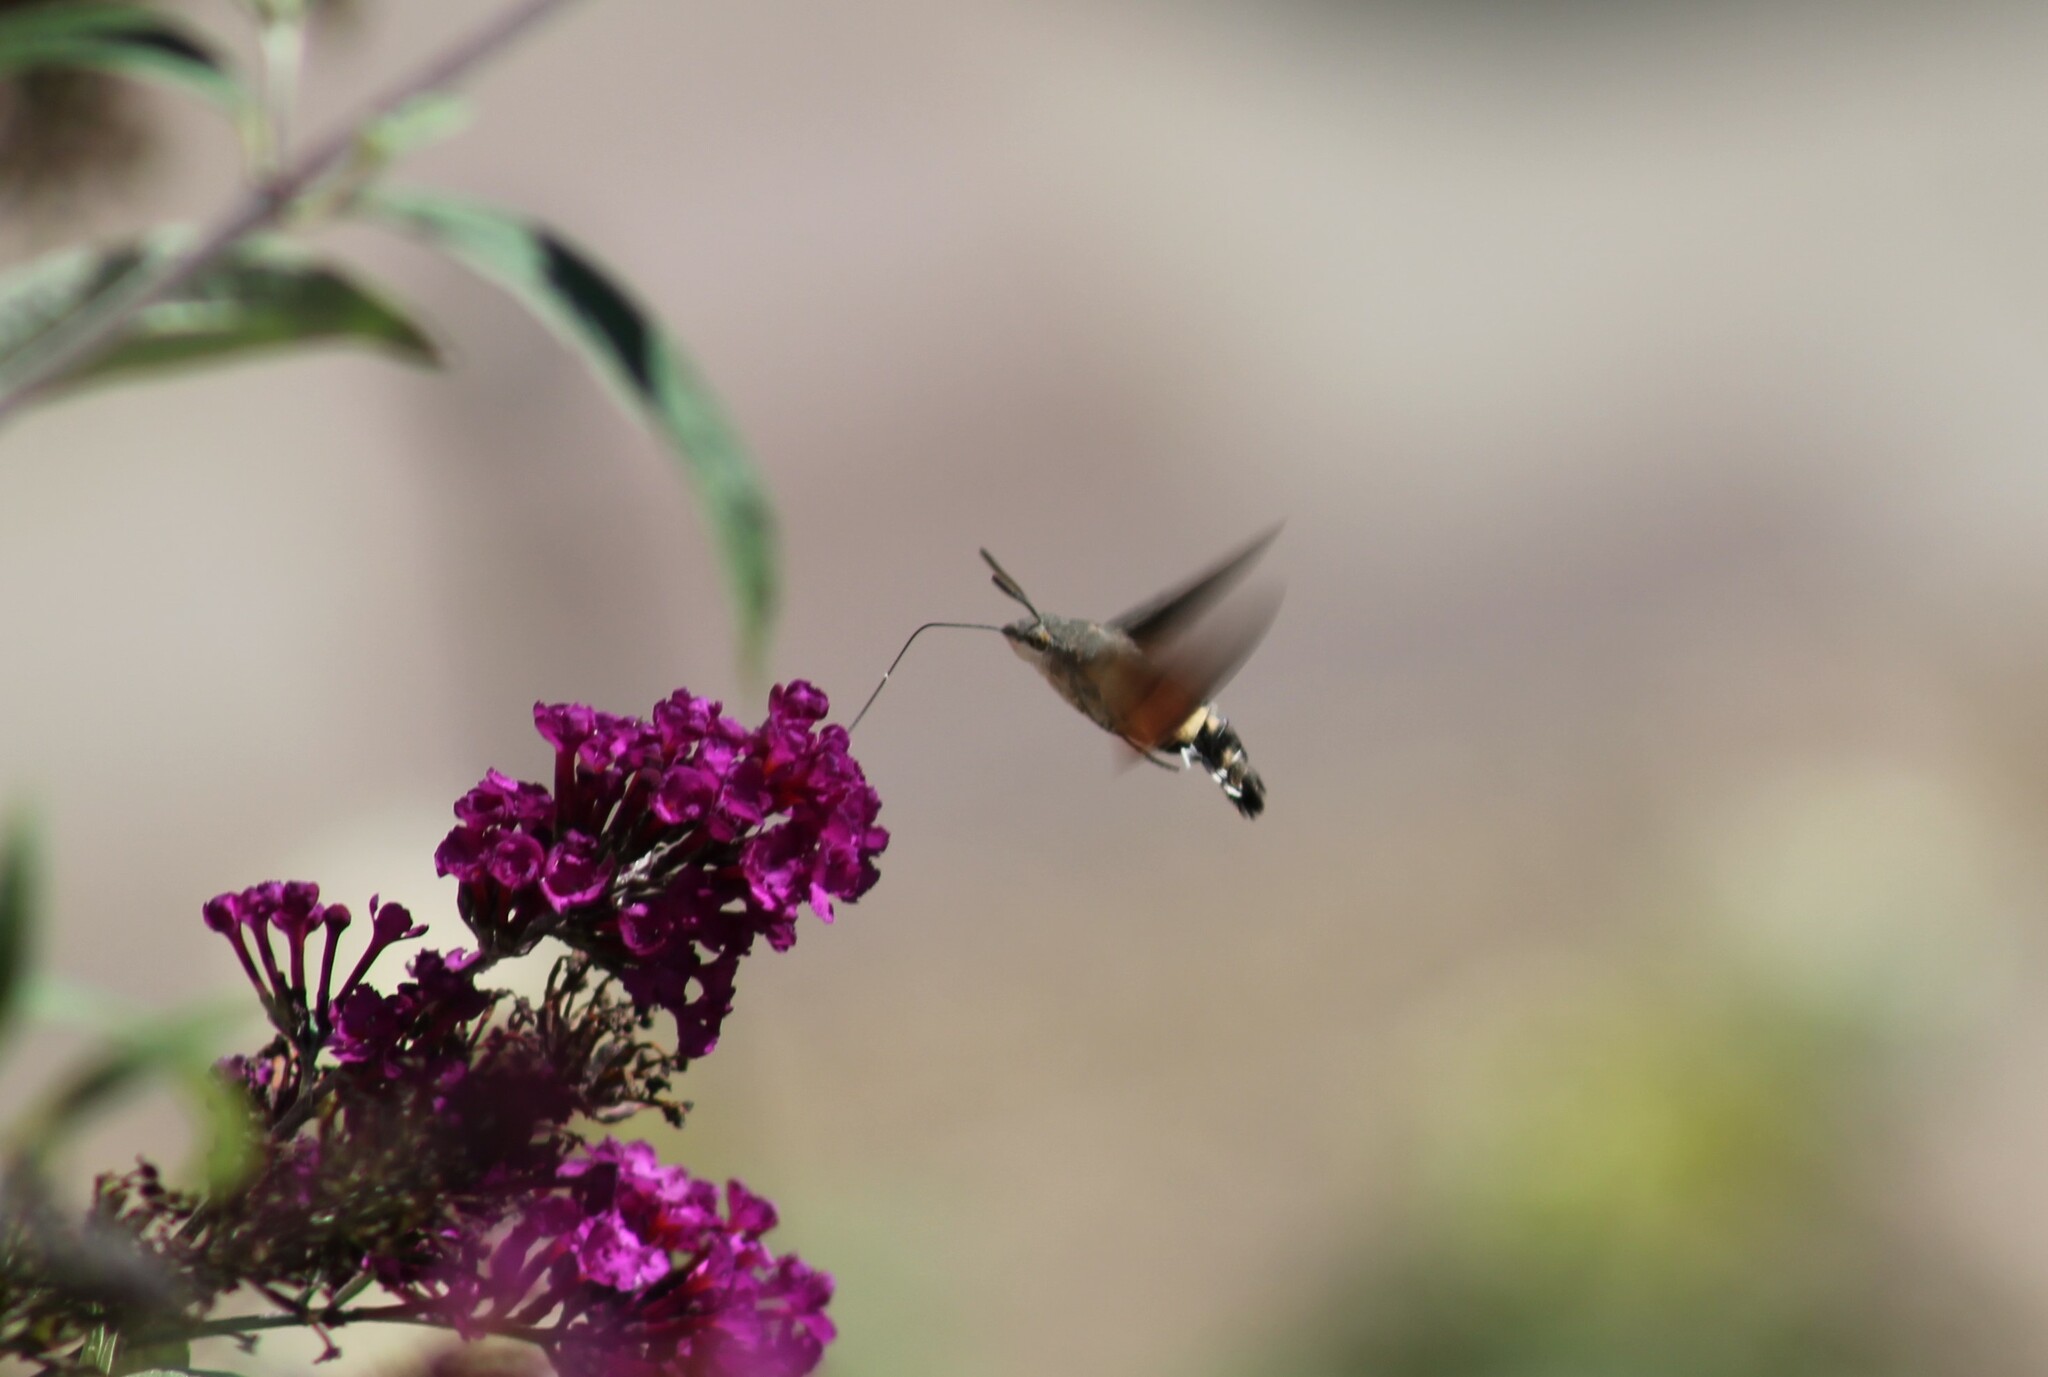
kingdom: Animalia
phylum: Arthropoda
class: Insecta
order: Lepidoptera
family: Sphingidae
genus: Macroglossum
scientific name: Macroglossum stellatarum
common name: Humming-bird hawk-moth
